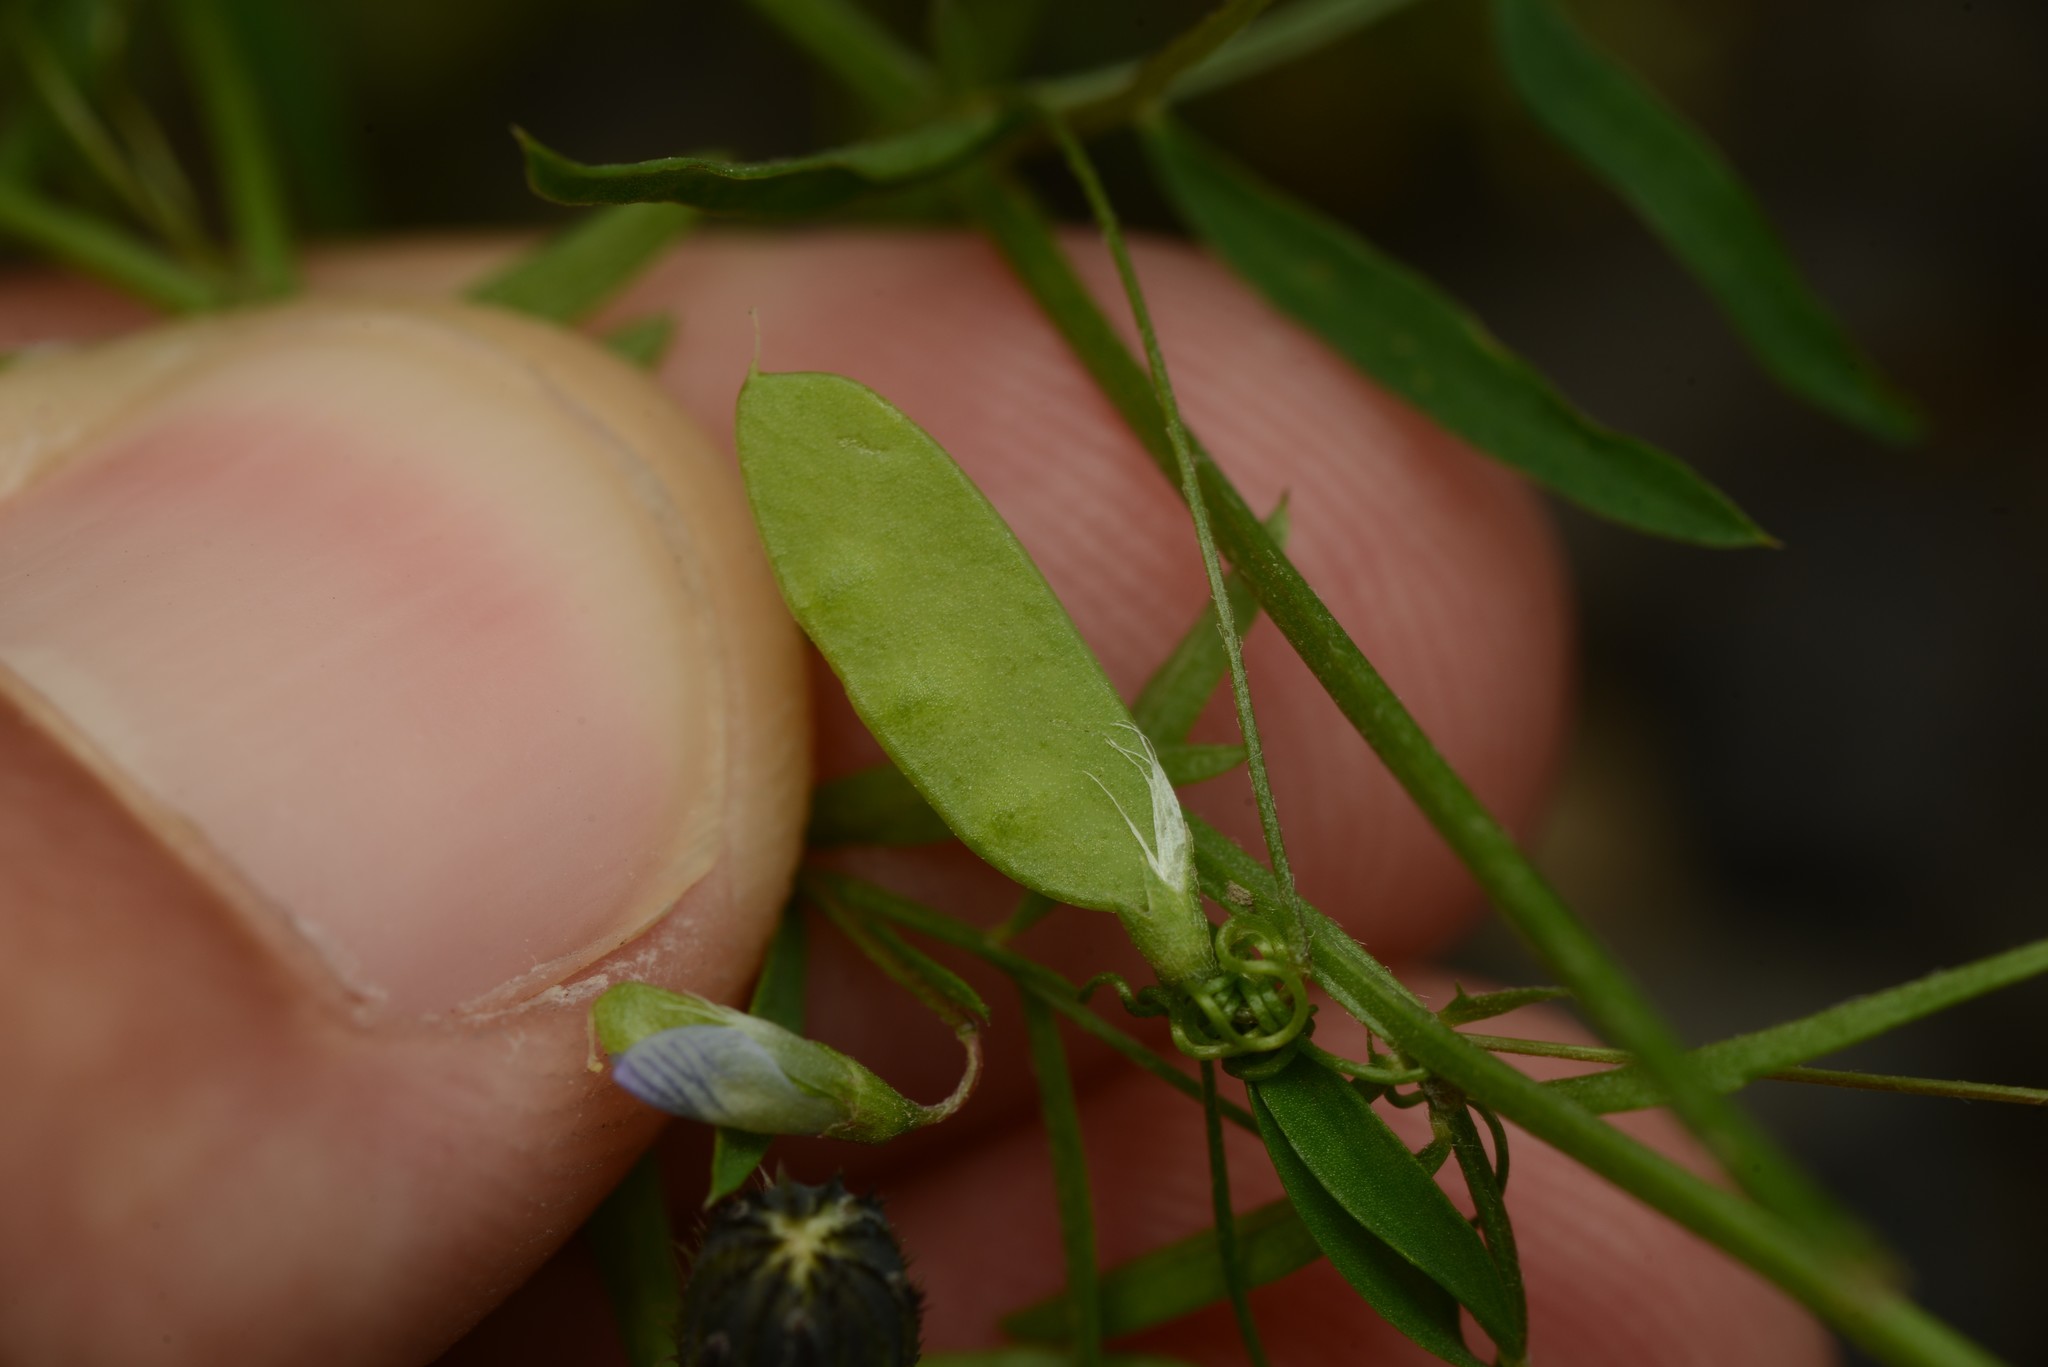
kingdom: Plantae
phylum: Tracheophyta
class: Magnoliopsida
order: Fabales
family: Fabaceae
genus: Vicia
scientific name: Vicia tetrasperma
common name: Smooth tare
